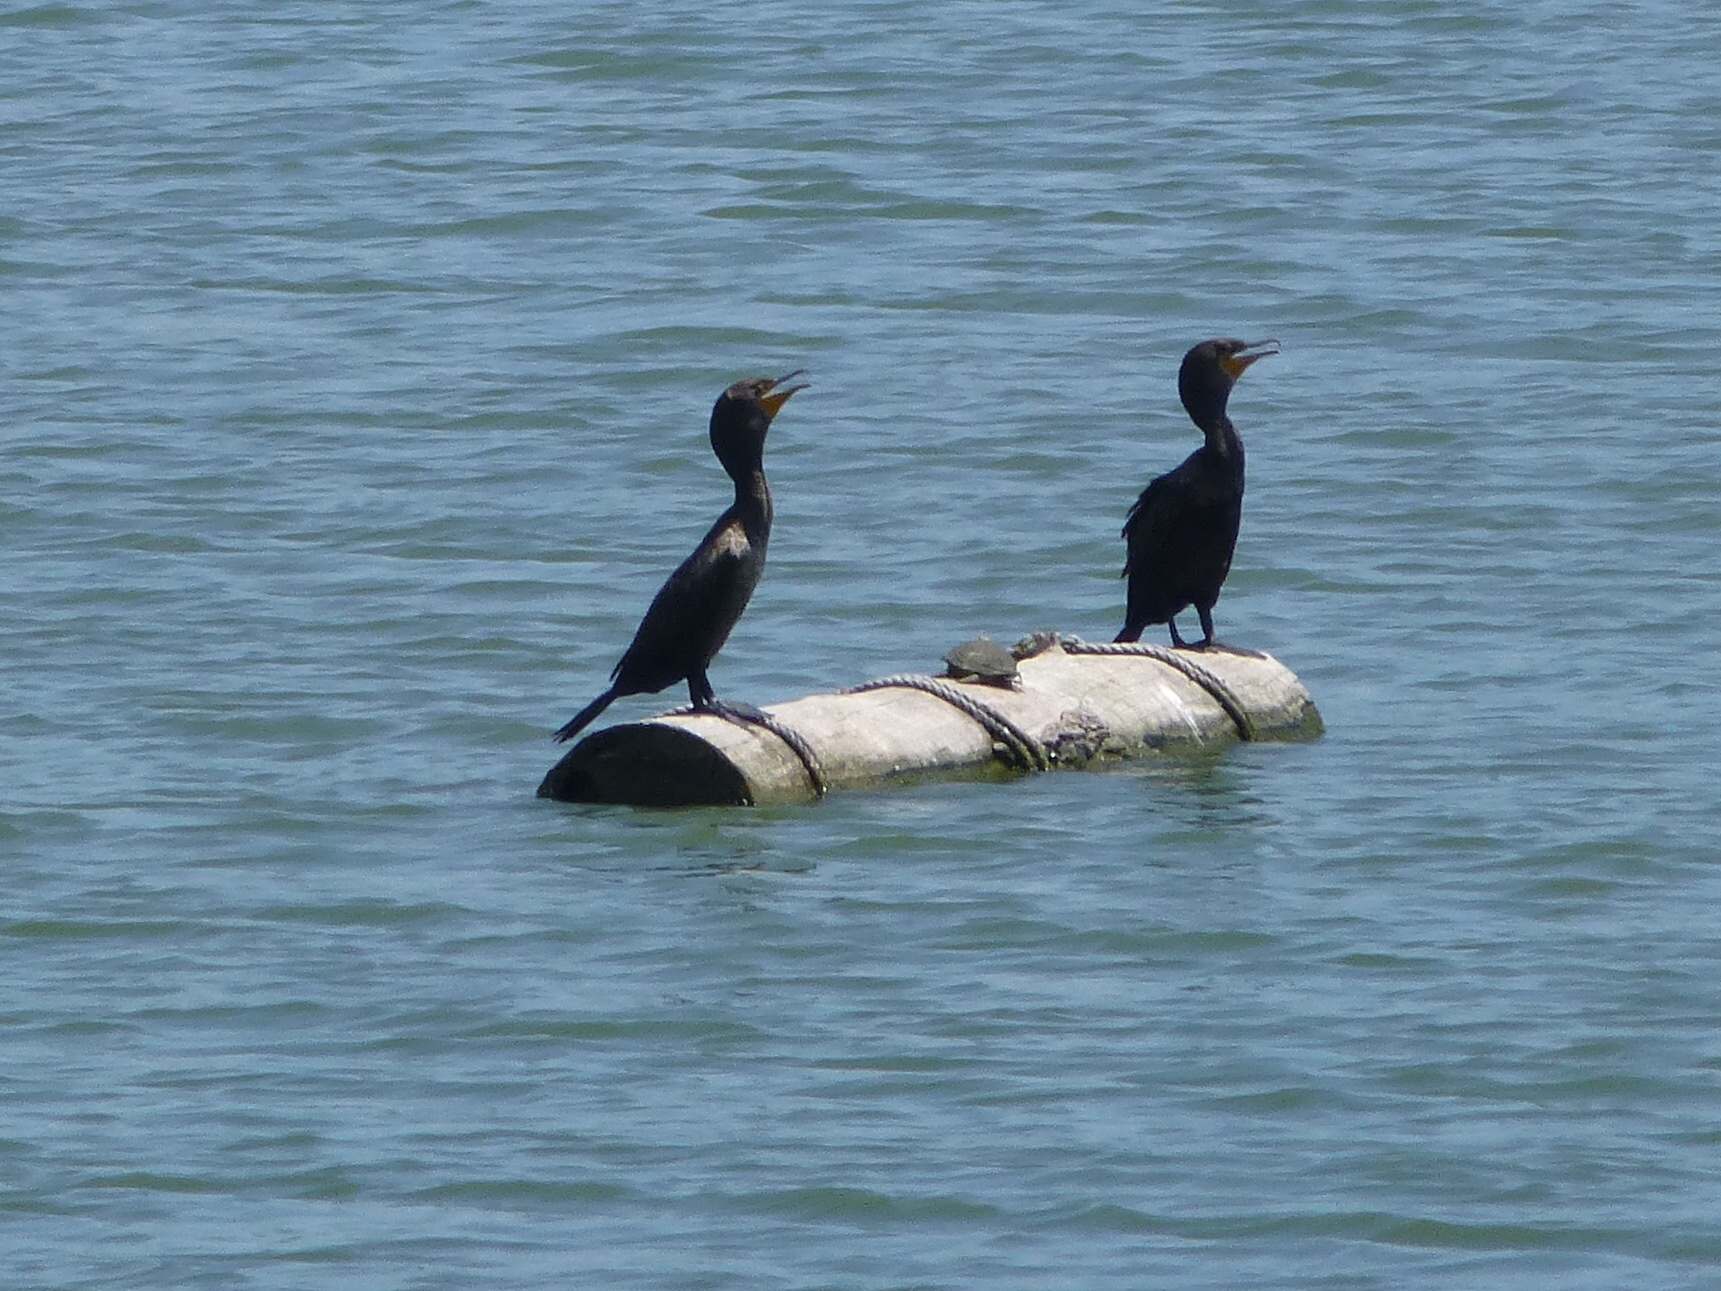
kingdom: Animalia
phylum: Chordata
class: Aves
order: Suliformes
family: Phalacrocoracidae
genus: Phalacrocorax
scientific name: Phalacrocorax auritus
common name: Double-crested cormorant
